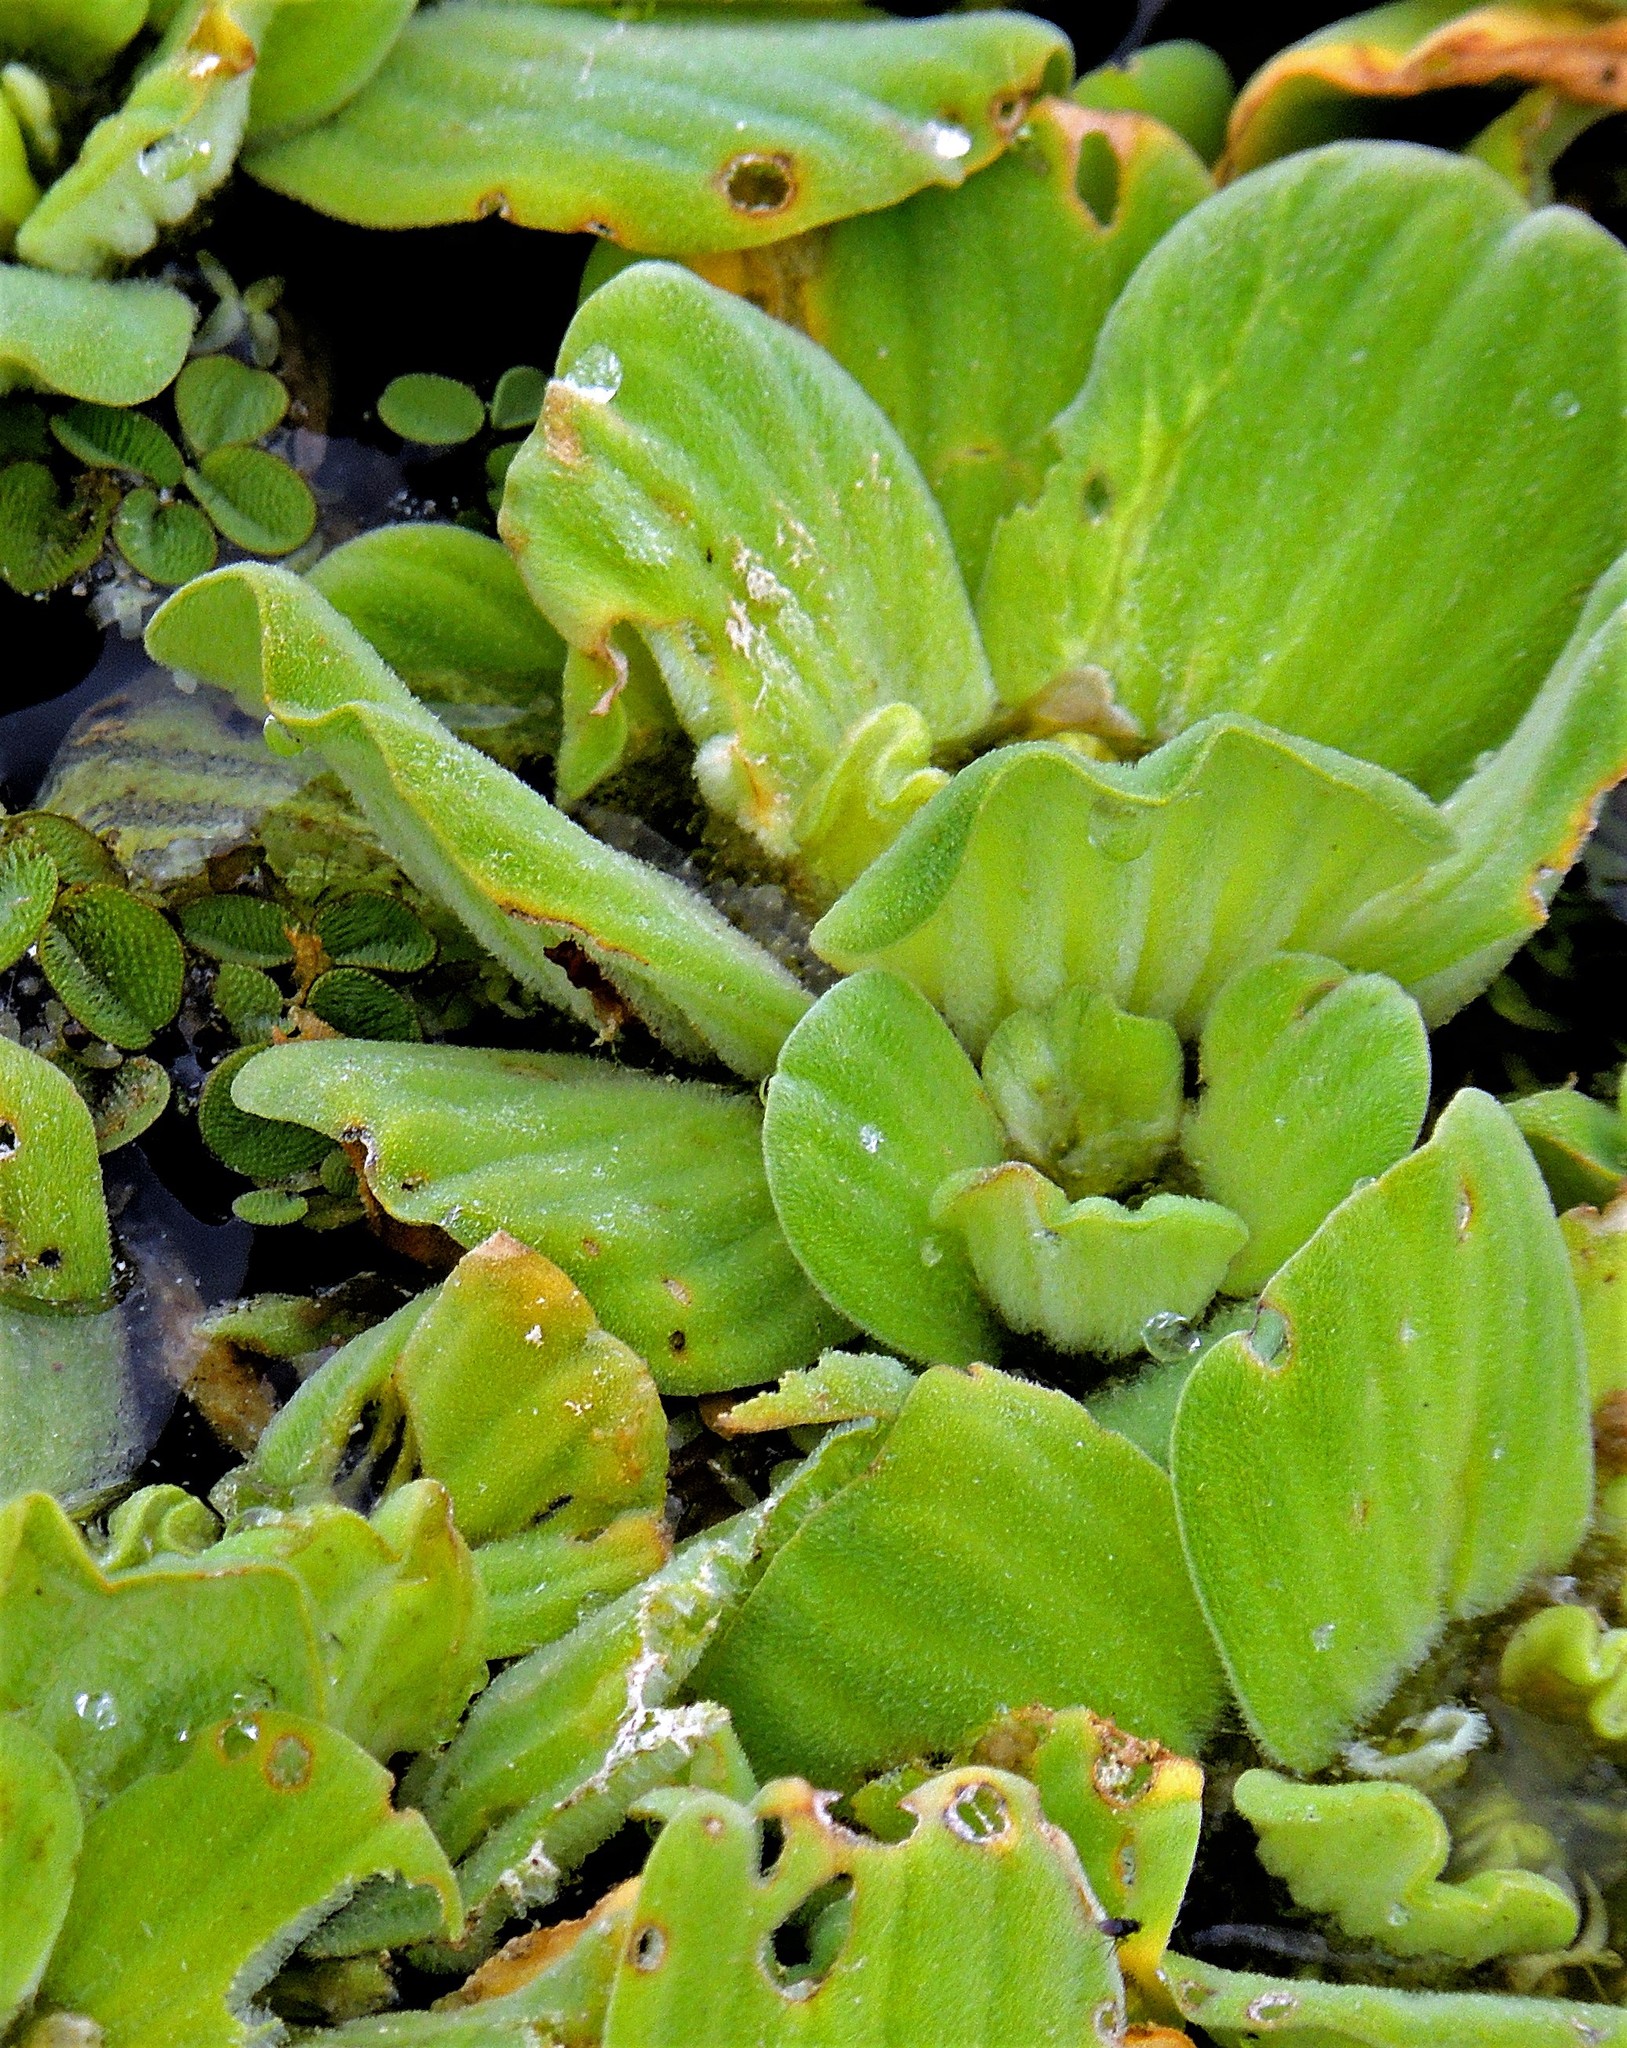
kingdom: Plantae
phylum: Tracheophyta
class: Liliopsida
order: Alismatales
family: Araceae
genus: Pistia
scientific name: Pistia stratiotes
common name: Water lettuce
